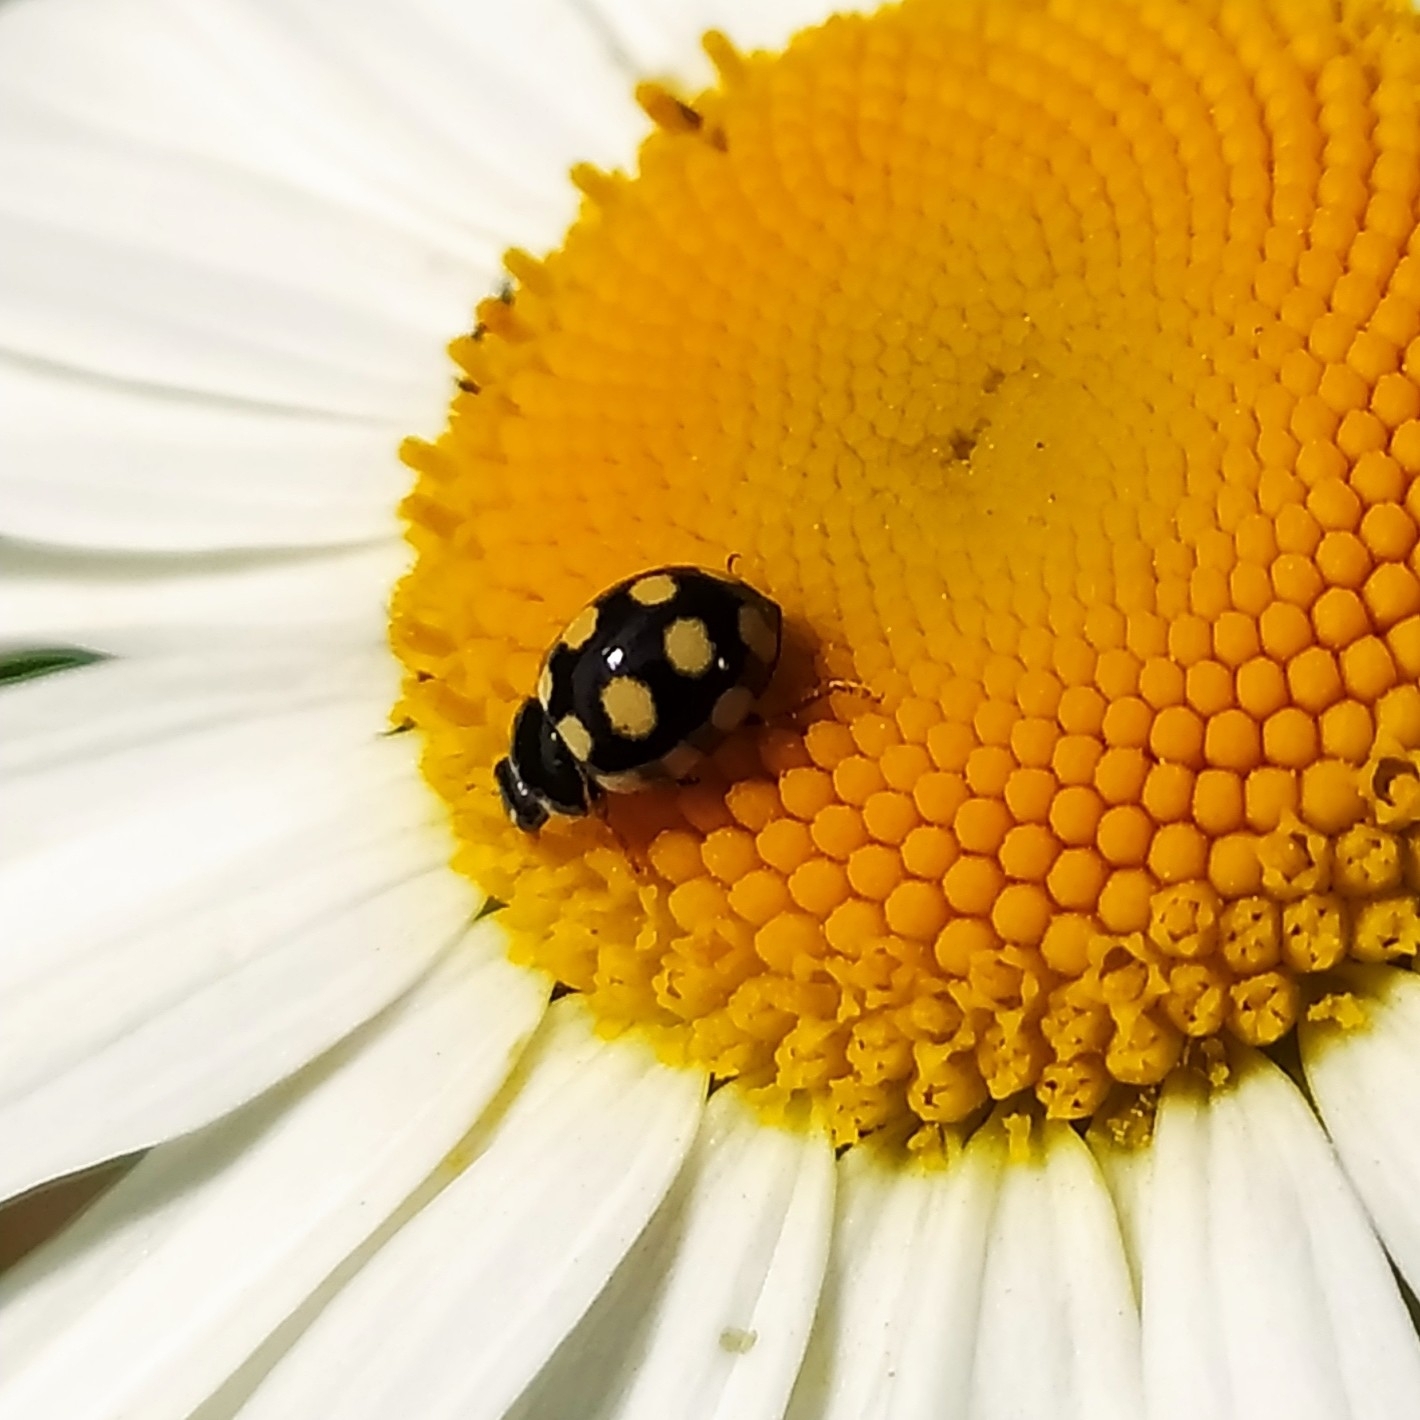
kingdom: Animalia
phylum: Arthropoda
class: Insecta
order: Coleoptera
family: Coccinellidae
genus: Coccinula
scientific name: Coccinula quatuordecimpustulata
